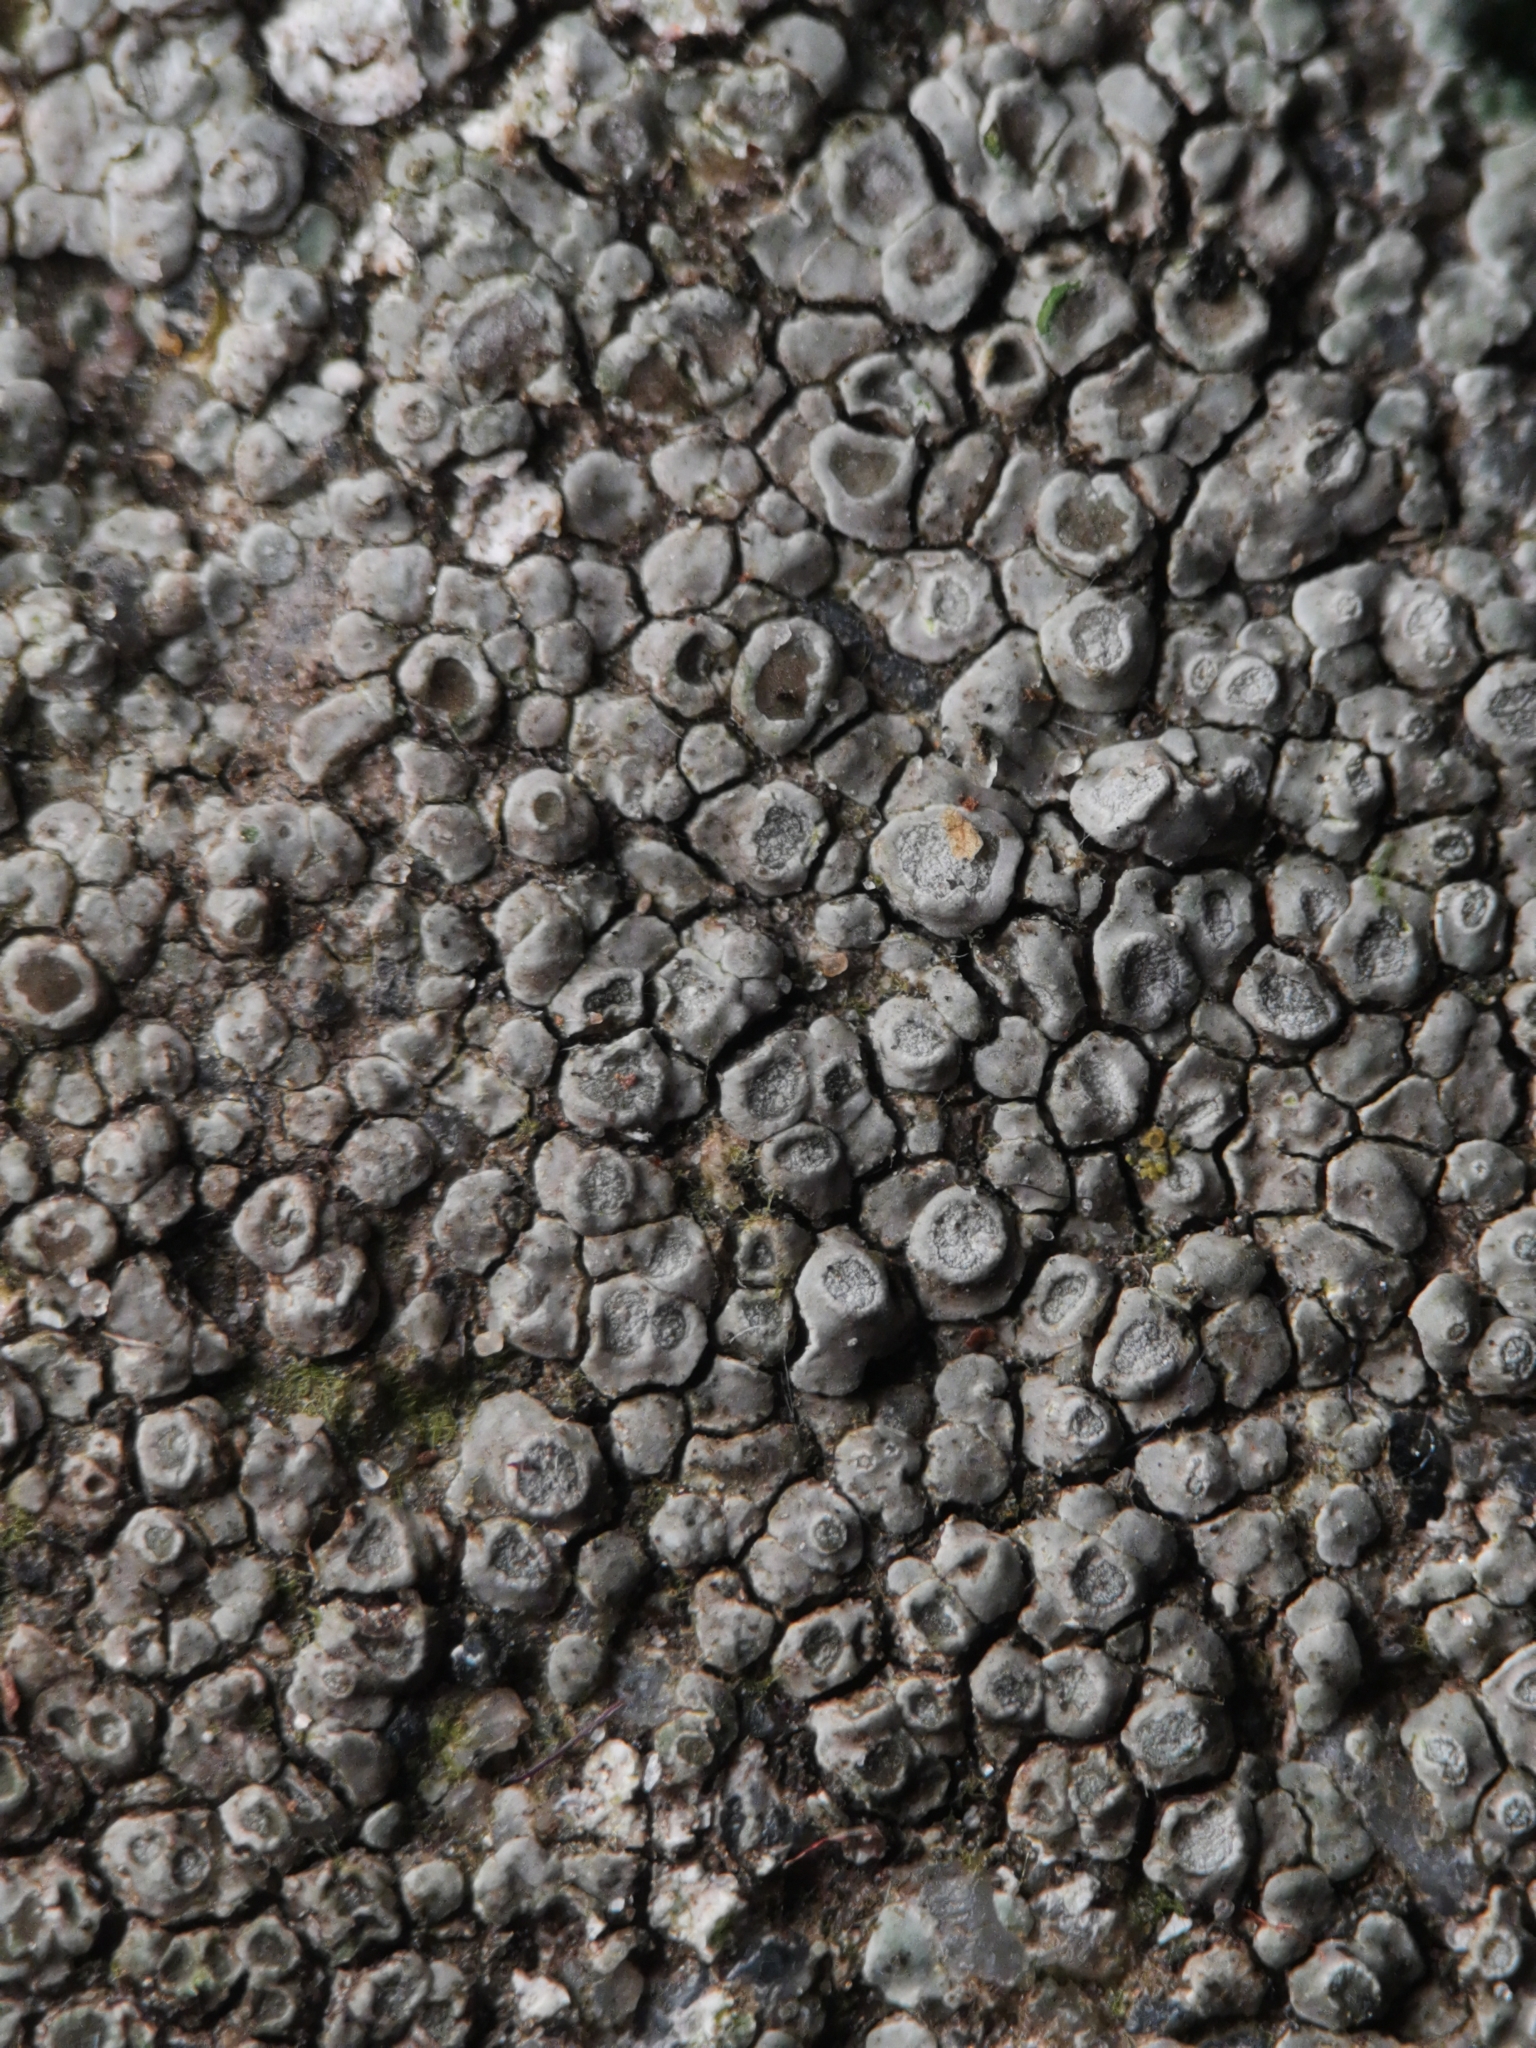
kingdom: Fungi
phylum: Ascomycota
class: Lecanoromycetes
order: Pertusariales
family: Megasporaceae
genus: Circinaria
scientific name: Circinaria contorta
